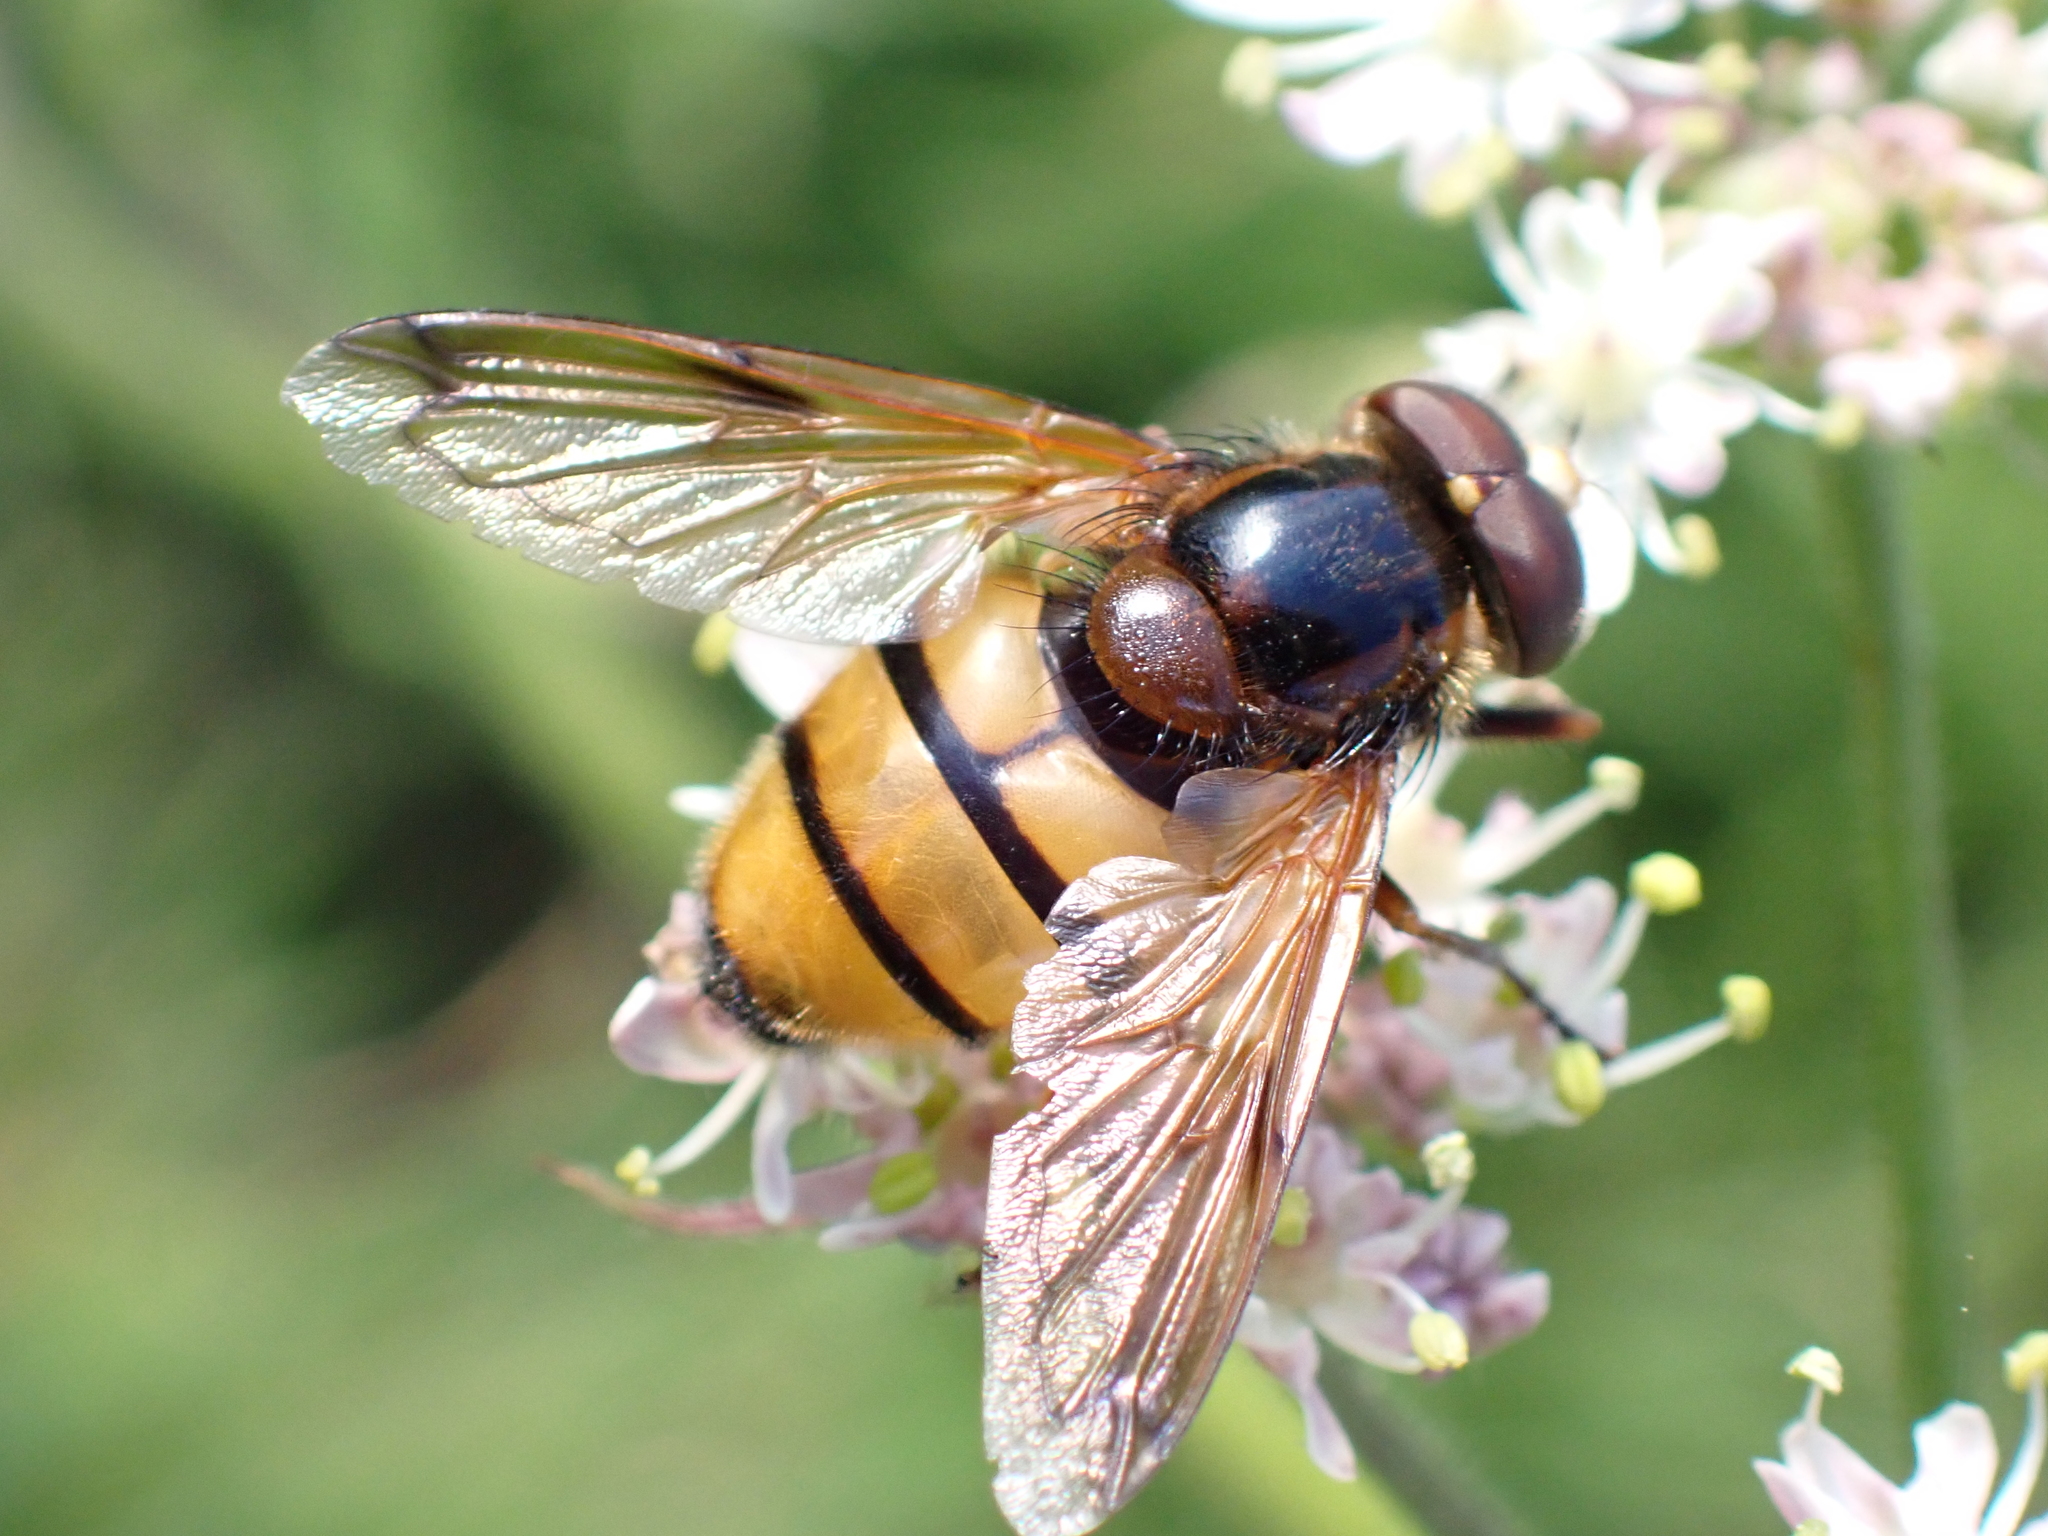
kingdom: Animalia
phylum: Arthropoda
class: Insecta
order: Diptera
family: Syrphidae
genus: Volucella
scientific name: Volucella inanis
